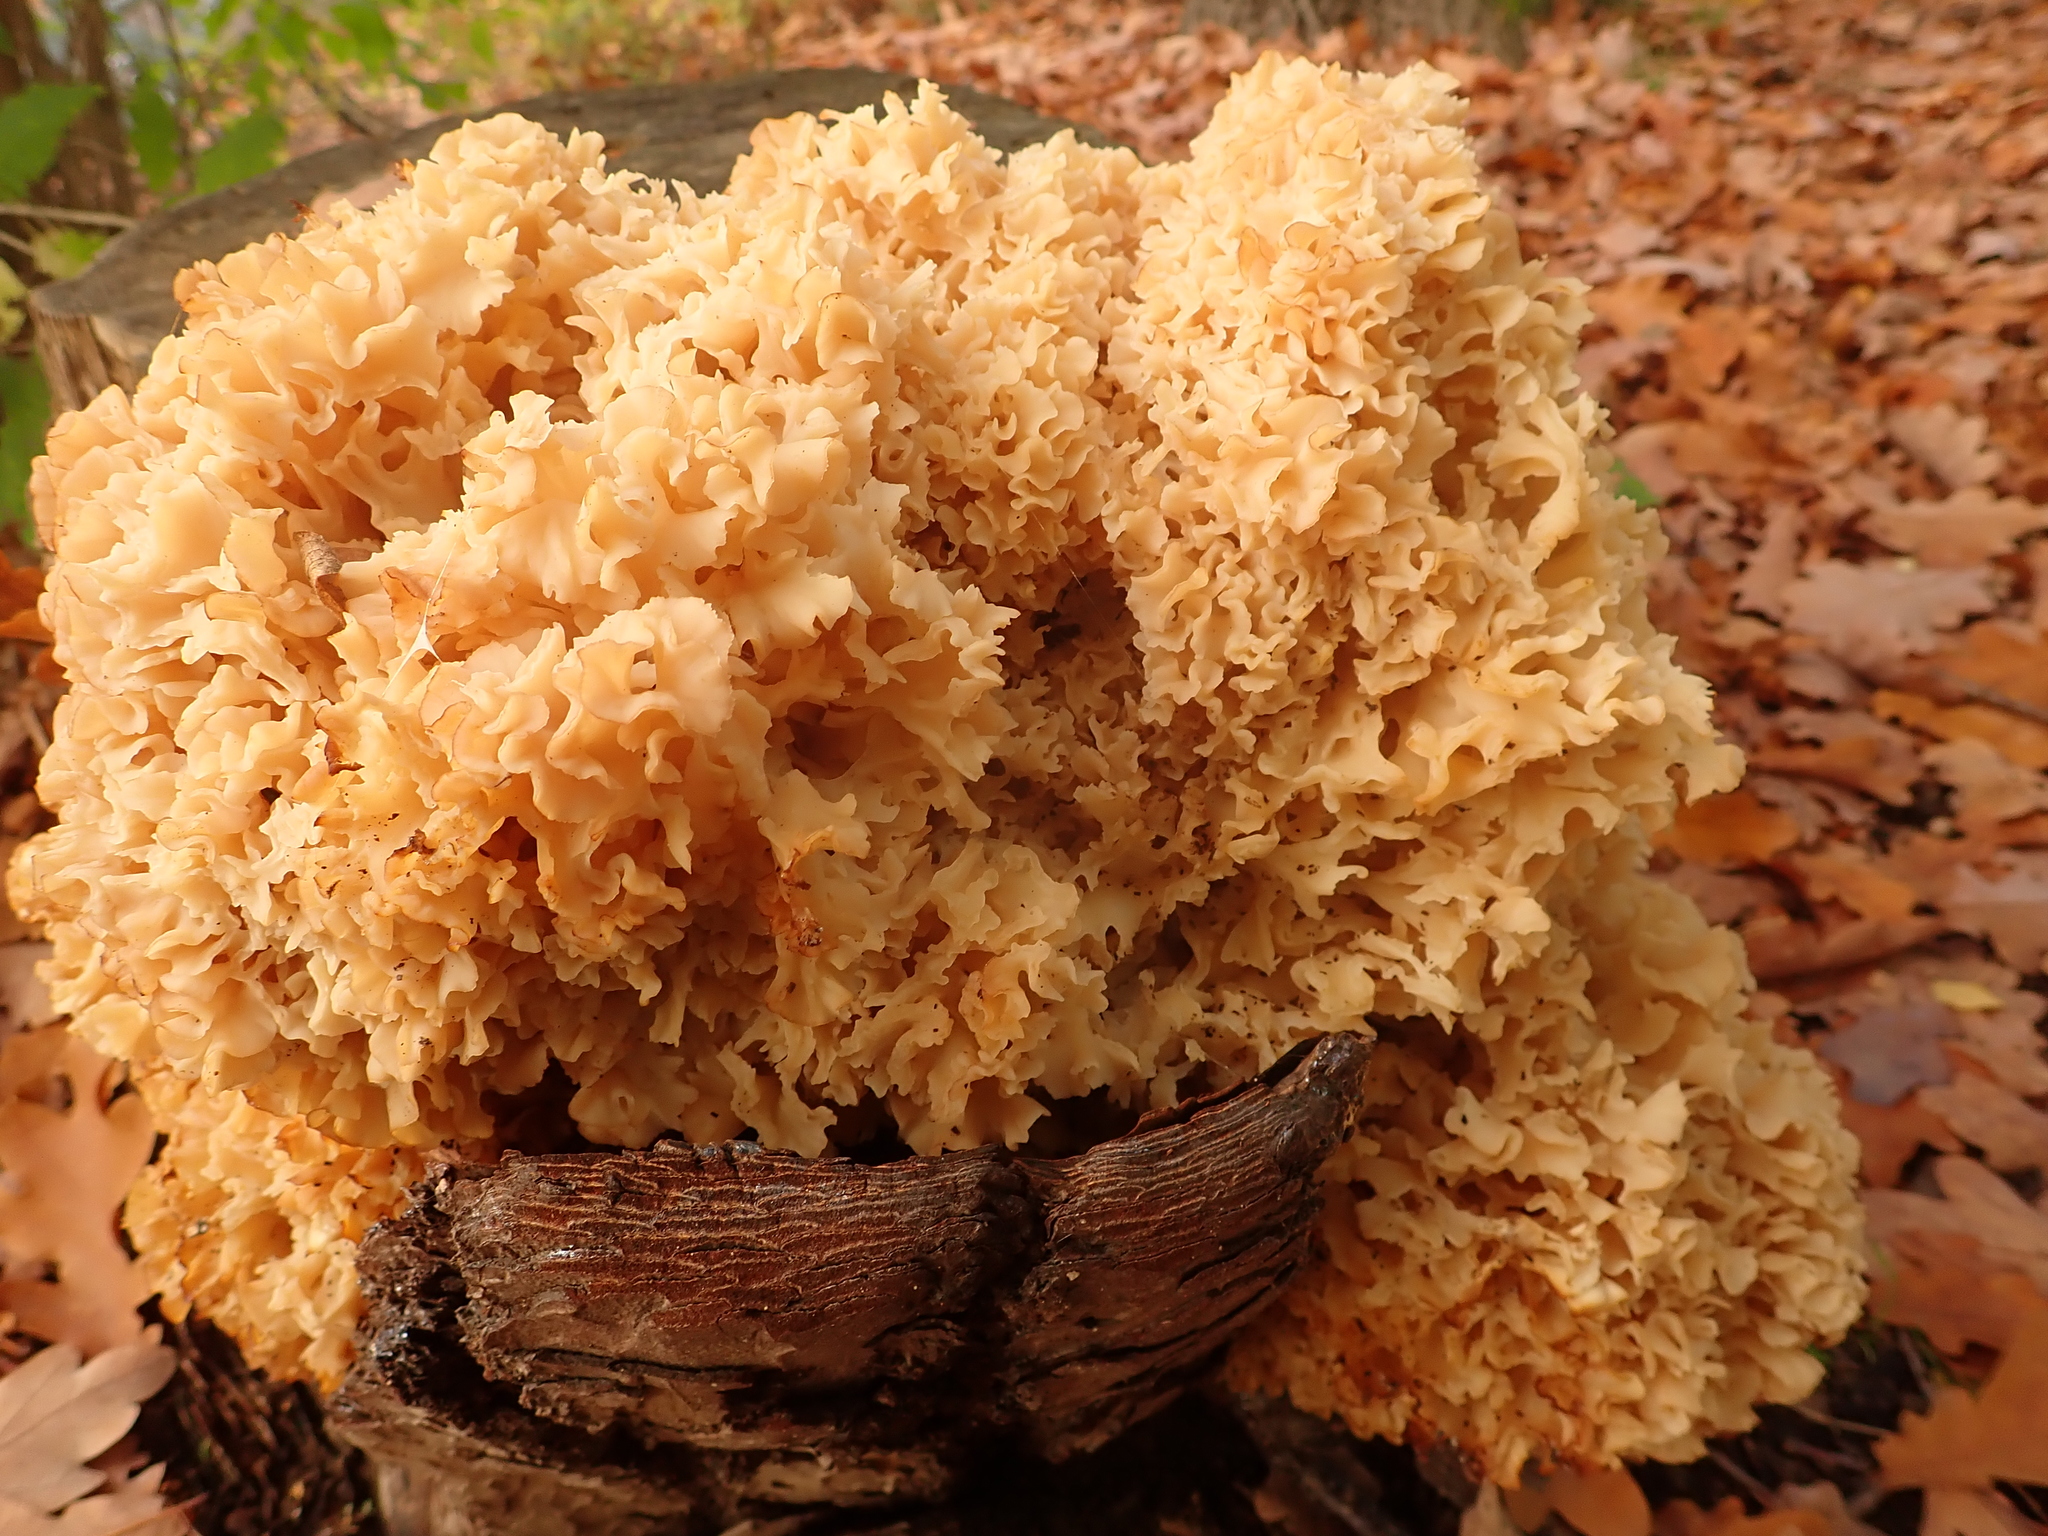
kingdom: Fungi
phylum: Basidiomycota
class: Agaricomycetes
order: Polyporales
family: Sparassidaceae
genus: Sparassis
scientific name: Sparassis crispa
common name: Brain fungus
